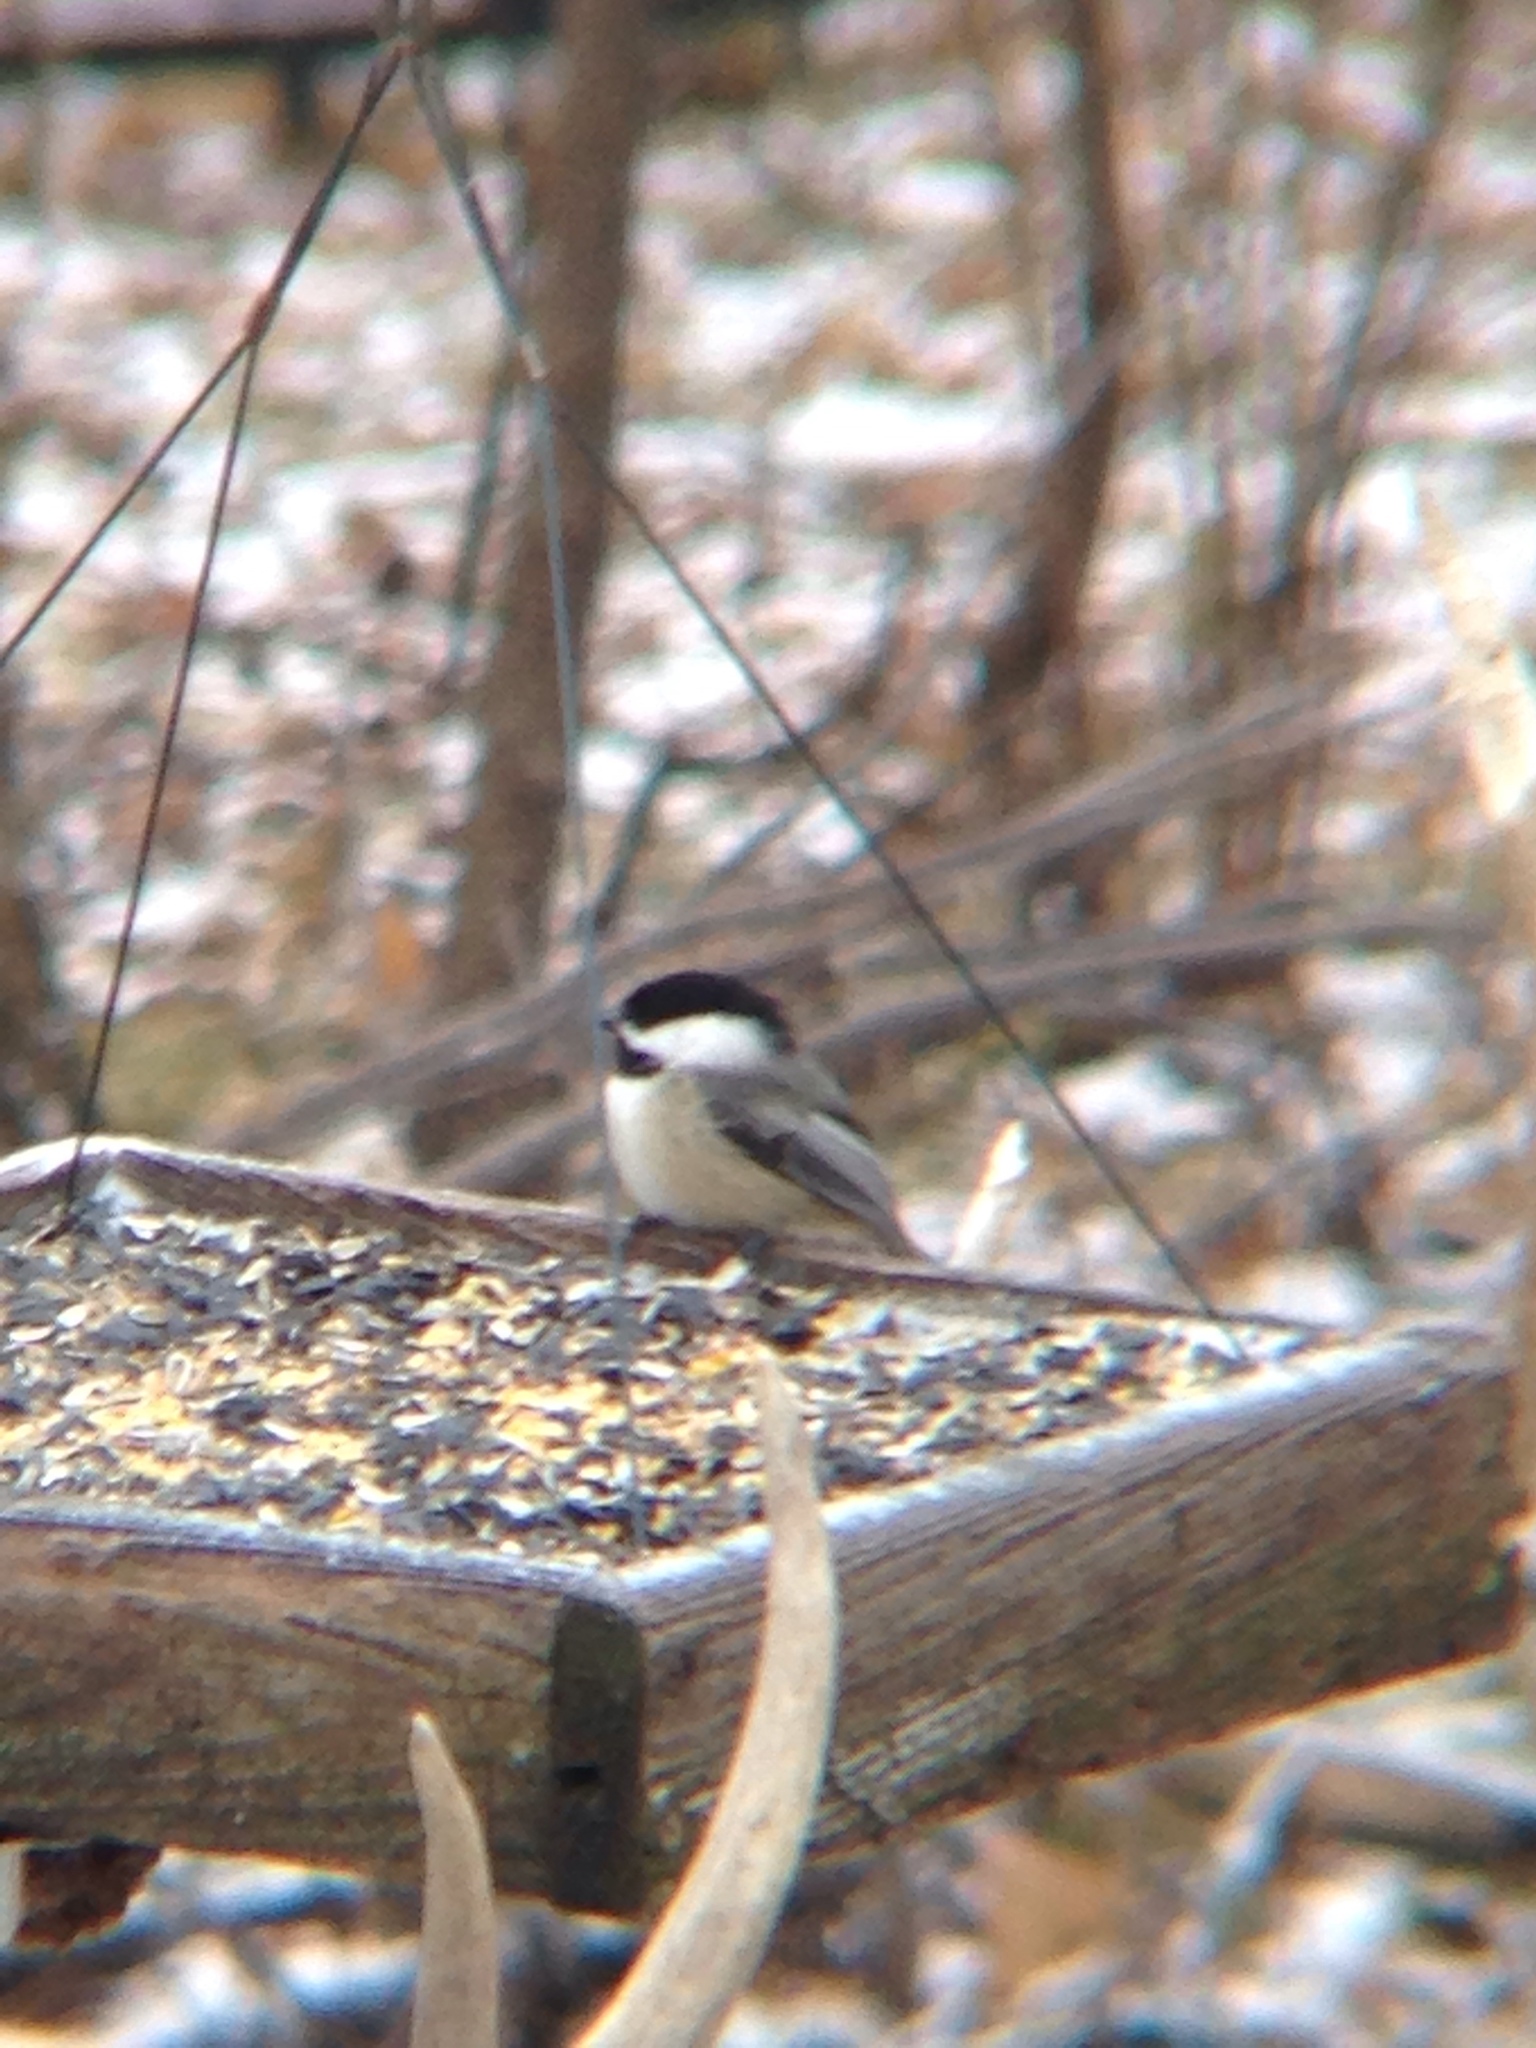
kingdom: Animalia
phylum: Chordata
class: Aves
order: Passeriformes
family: Paridae
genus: Poecile
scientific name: Poecile atricapillus
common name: Black-capped chickadee
